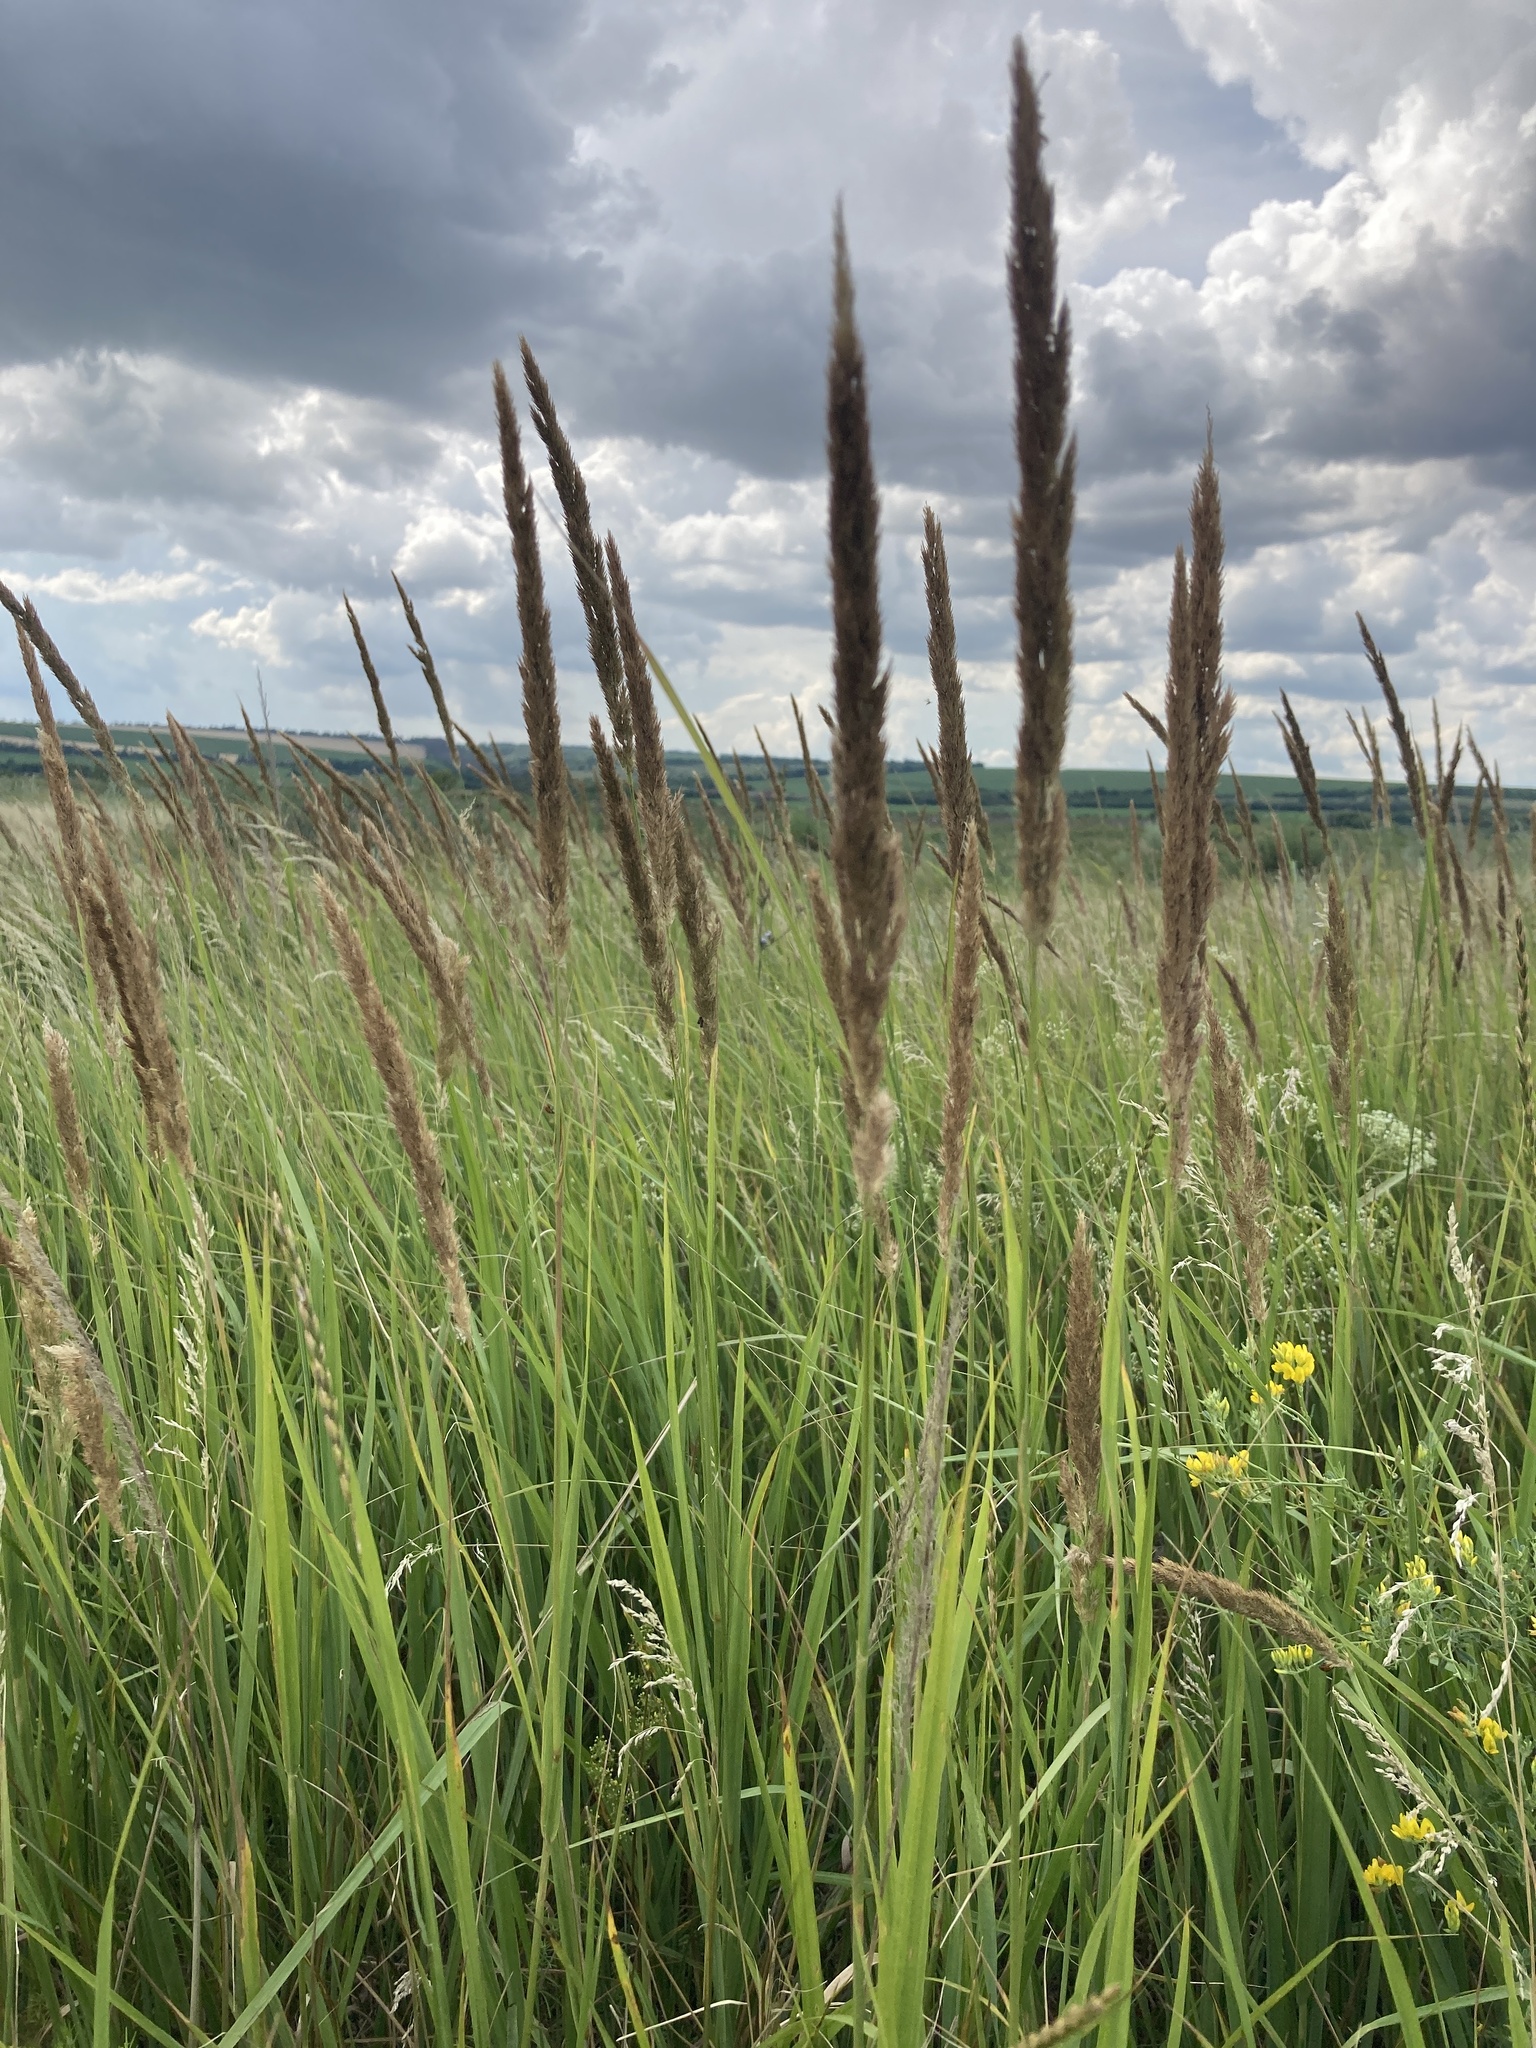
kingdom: Plantae
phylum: Tracheophyta
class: Liliopsida
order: Poales
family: Poaceae
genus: Calamagrostis
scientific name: Calamagrostis epigejos
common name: Wood small-reed
